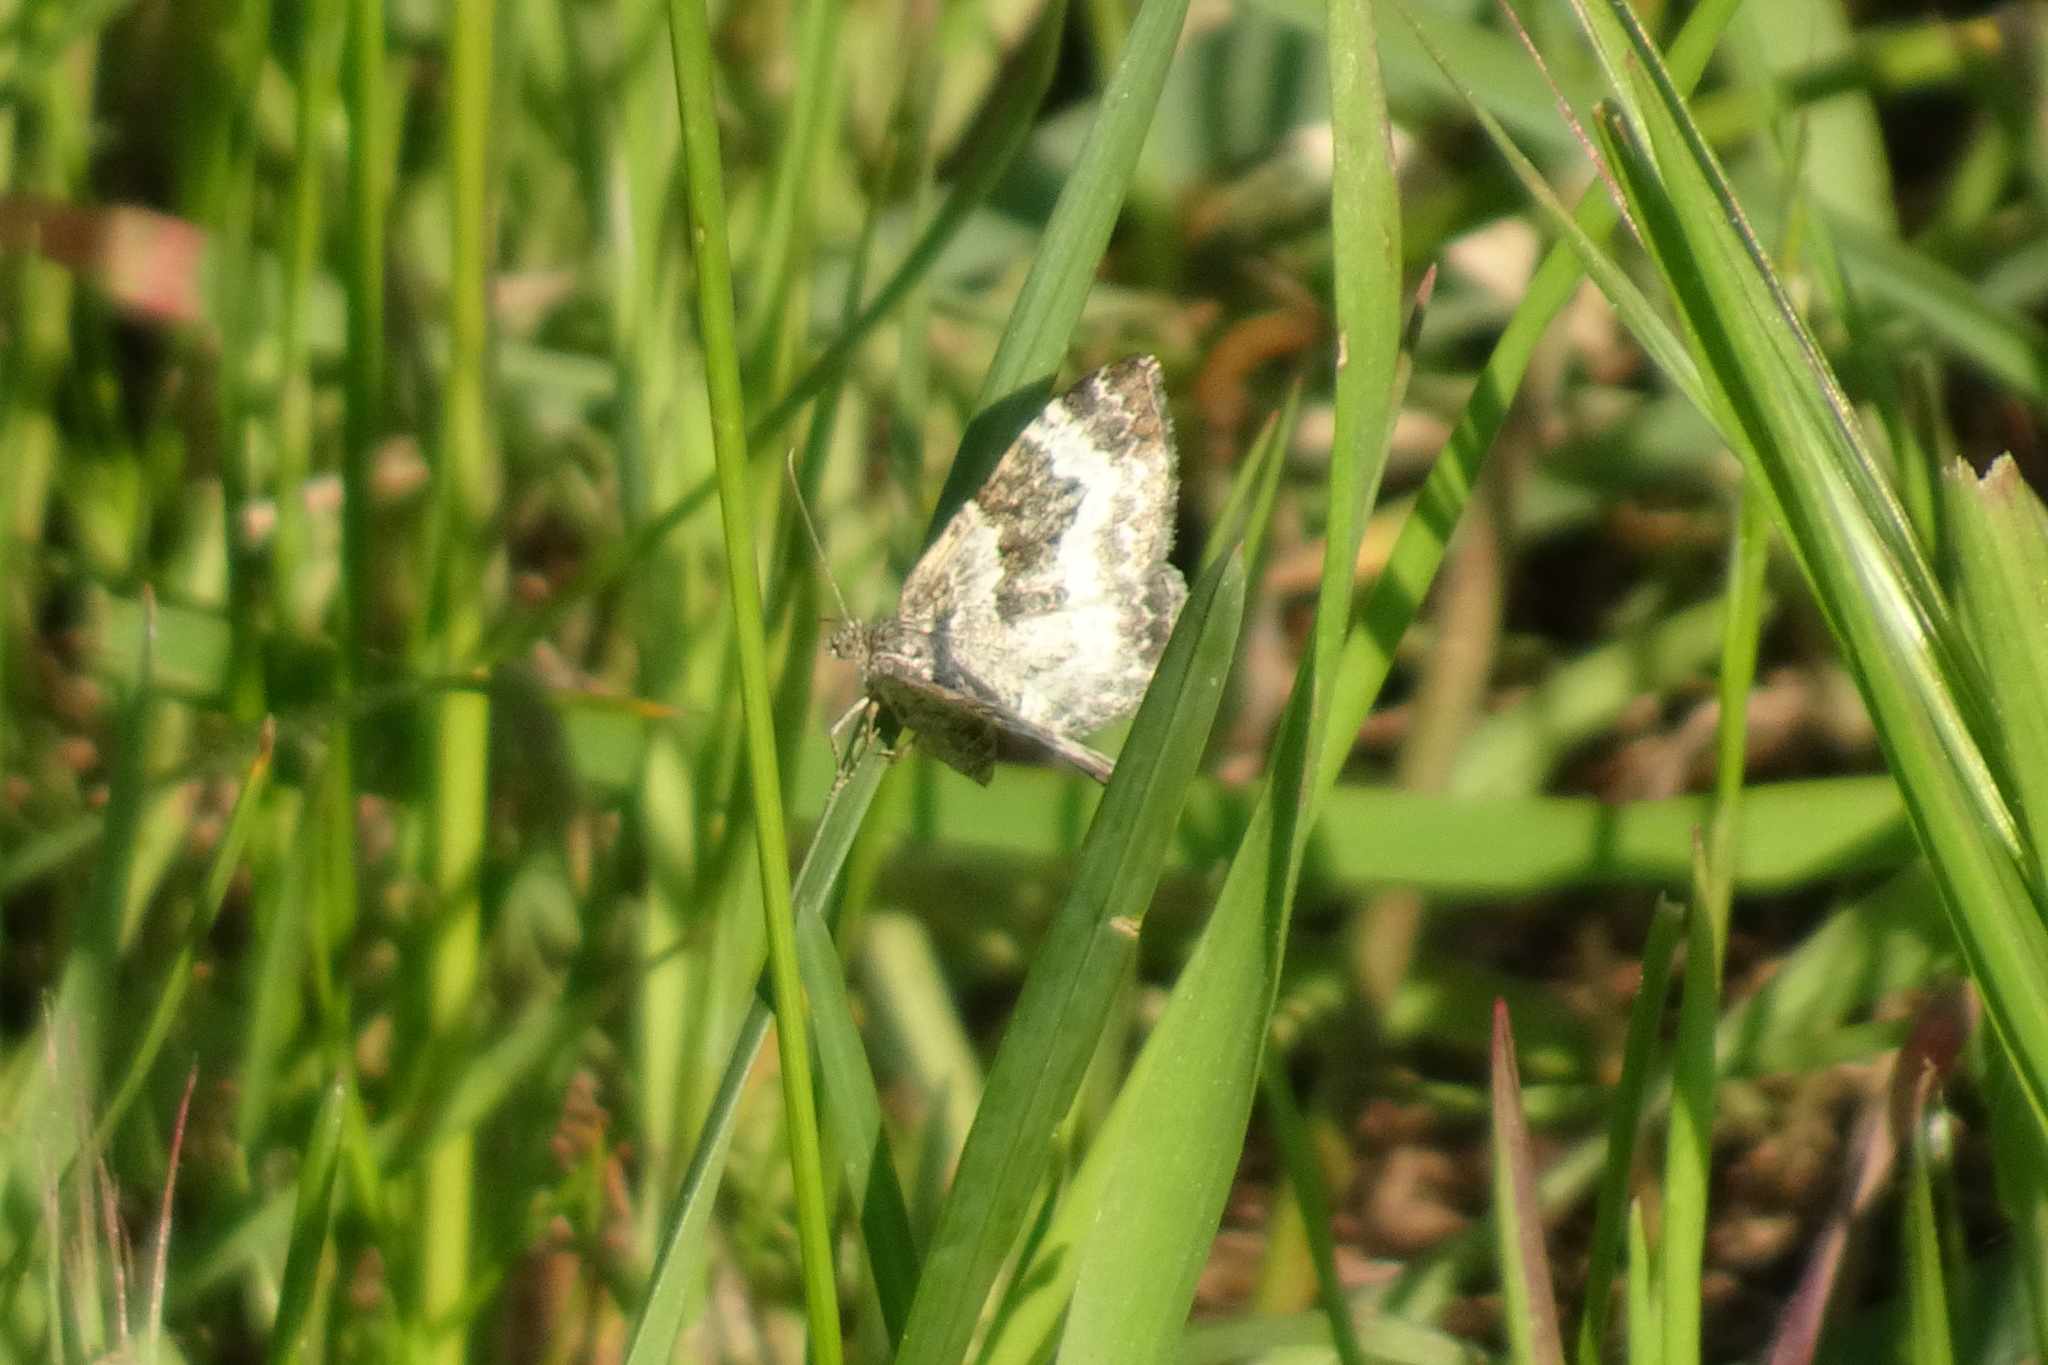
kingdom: Animalia
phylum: Arthropoda
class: Insecta
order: Lepidoptera
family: Geometridae
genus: Epirrhoe
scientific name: Epirrhoe alternata
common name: Common carpet
